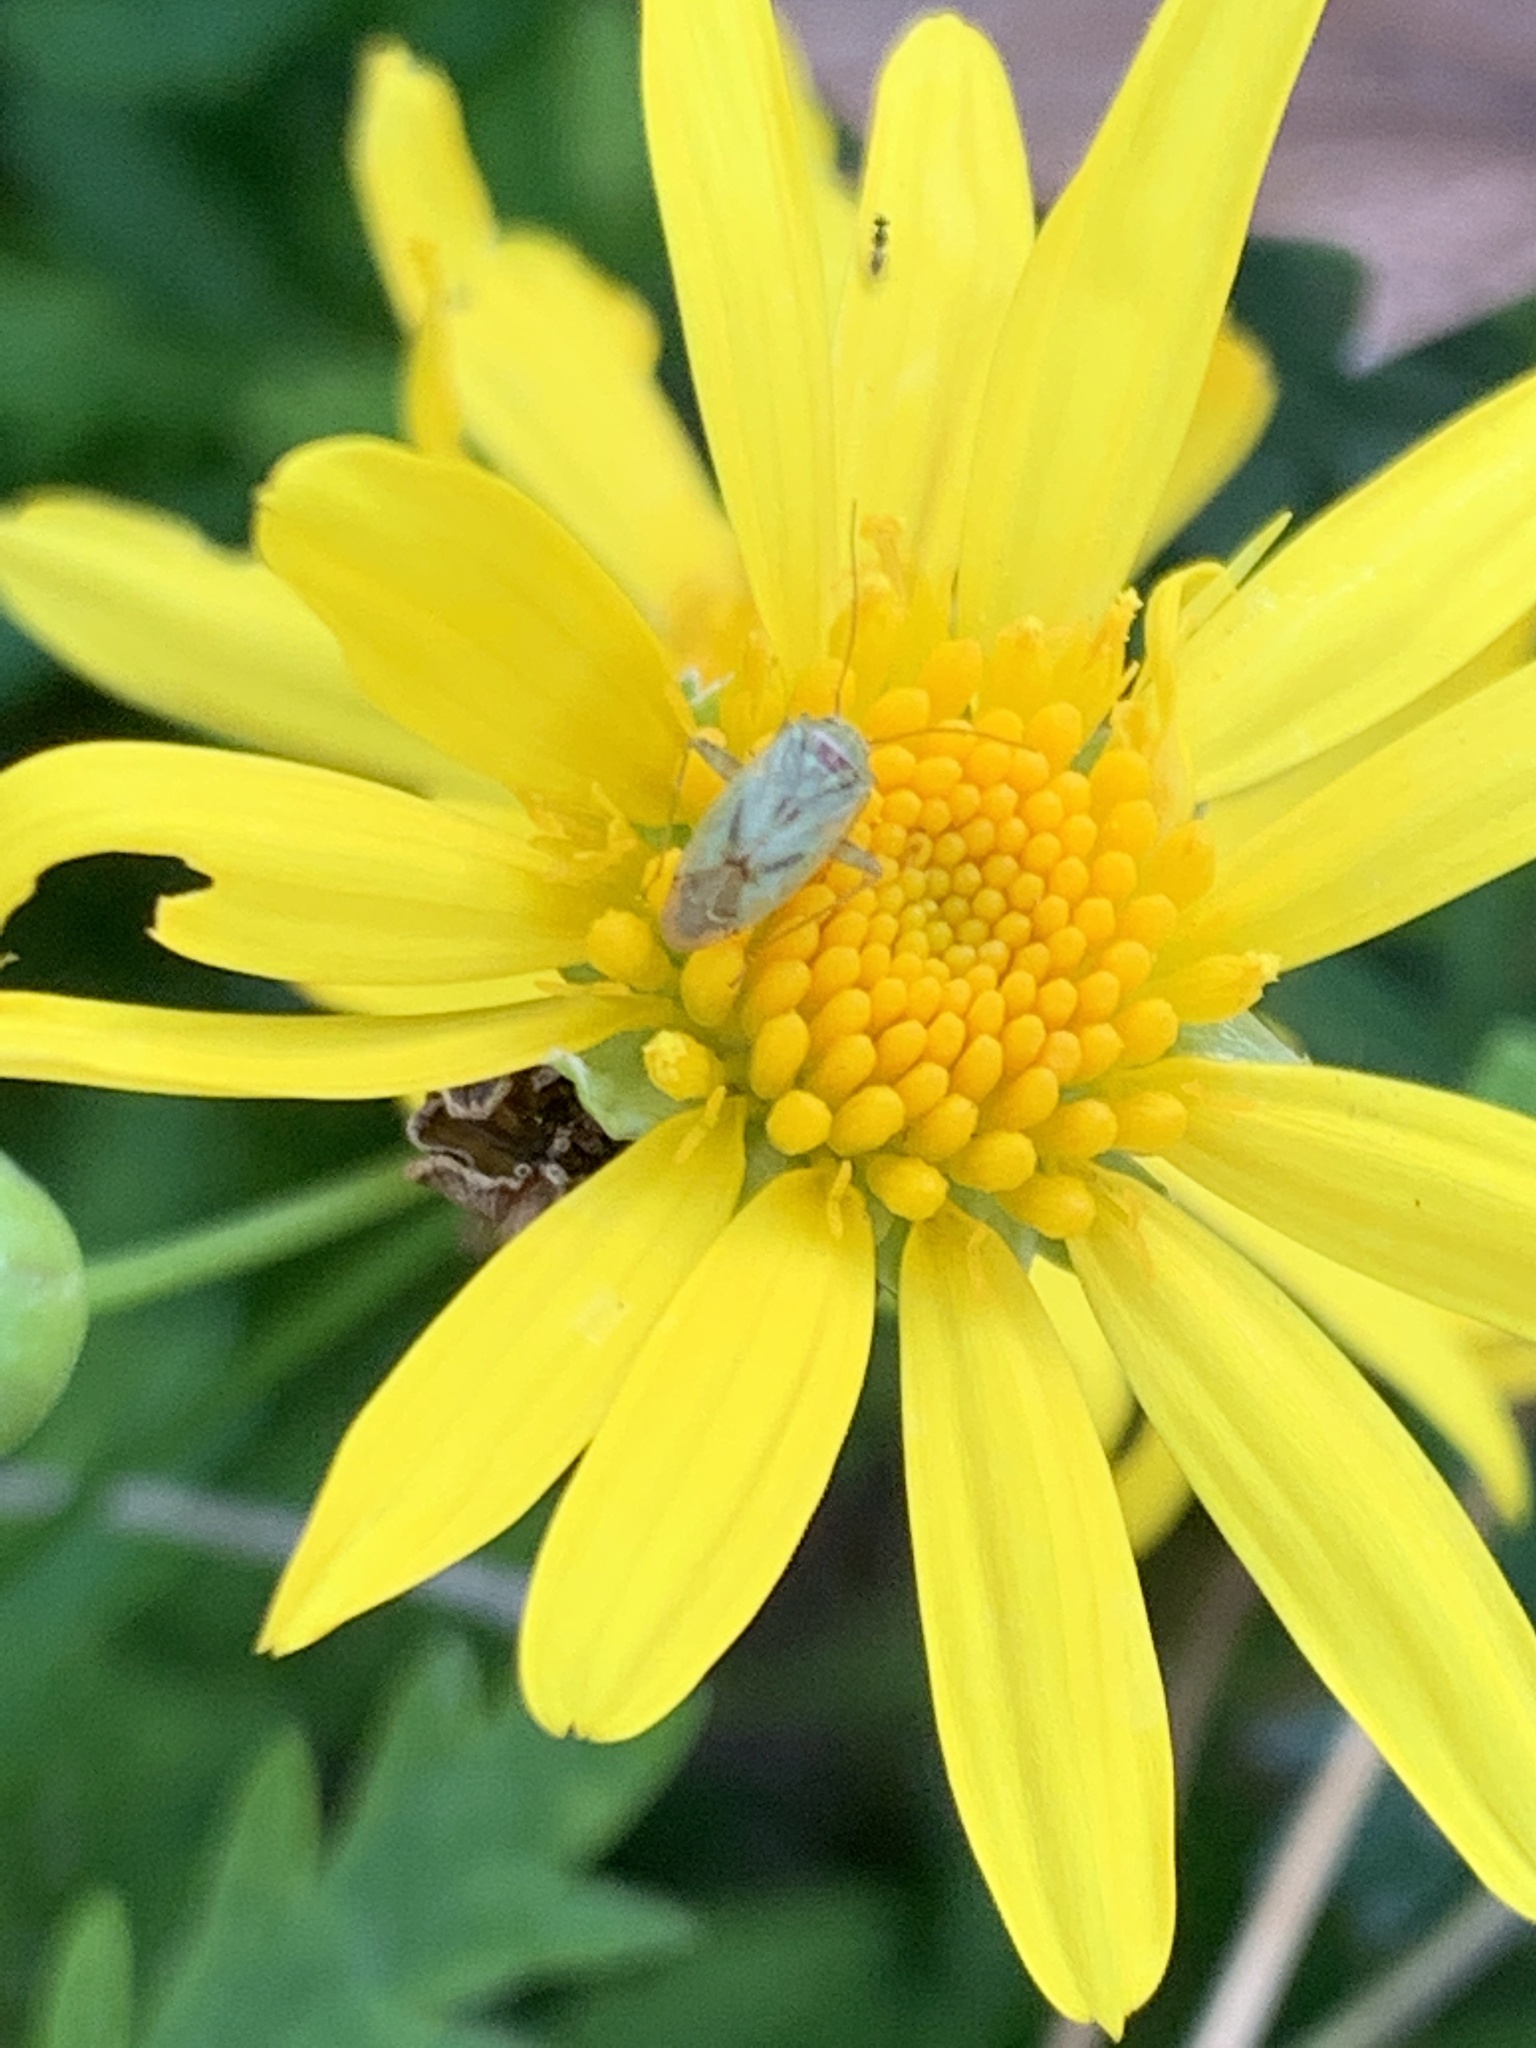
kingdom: Animalia
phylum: Arthropoda
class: Insecta
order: Hemiptera
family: Miridae
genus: Taylorilygus
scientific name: Taylorilygus apicalis
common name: Plant bug
